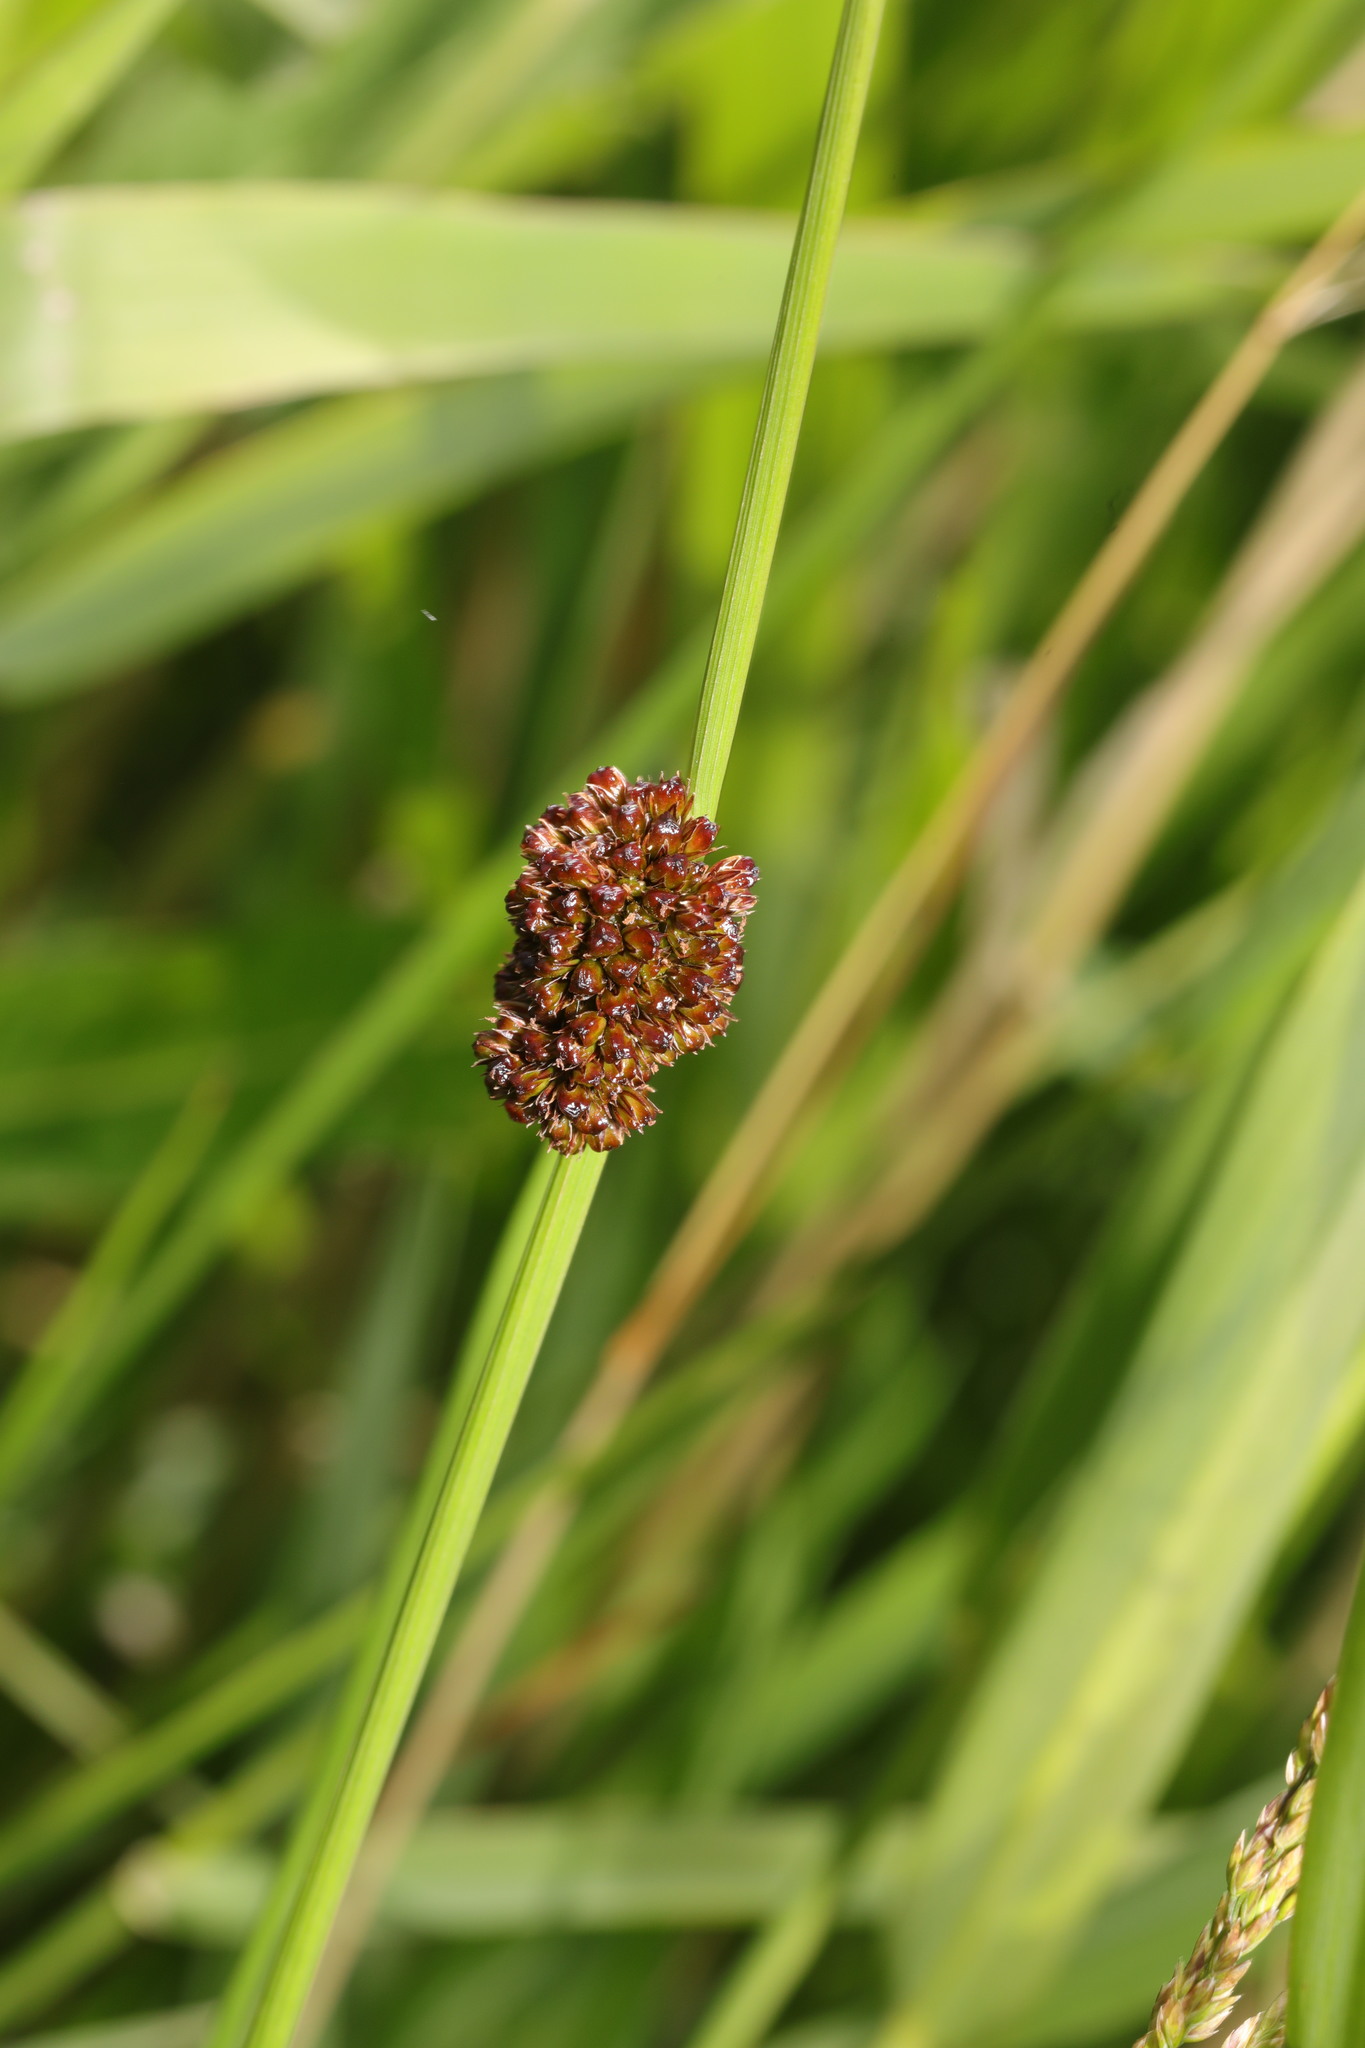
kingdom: Plantae
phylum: Tracheophyta
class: Liliopsida
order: Poales
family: Juncaceae
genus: Juncus
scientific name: Juncus conglomeratus
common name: Compact rush
